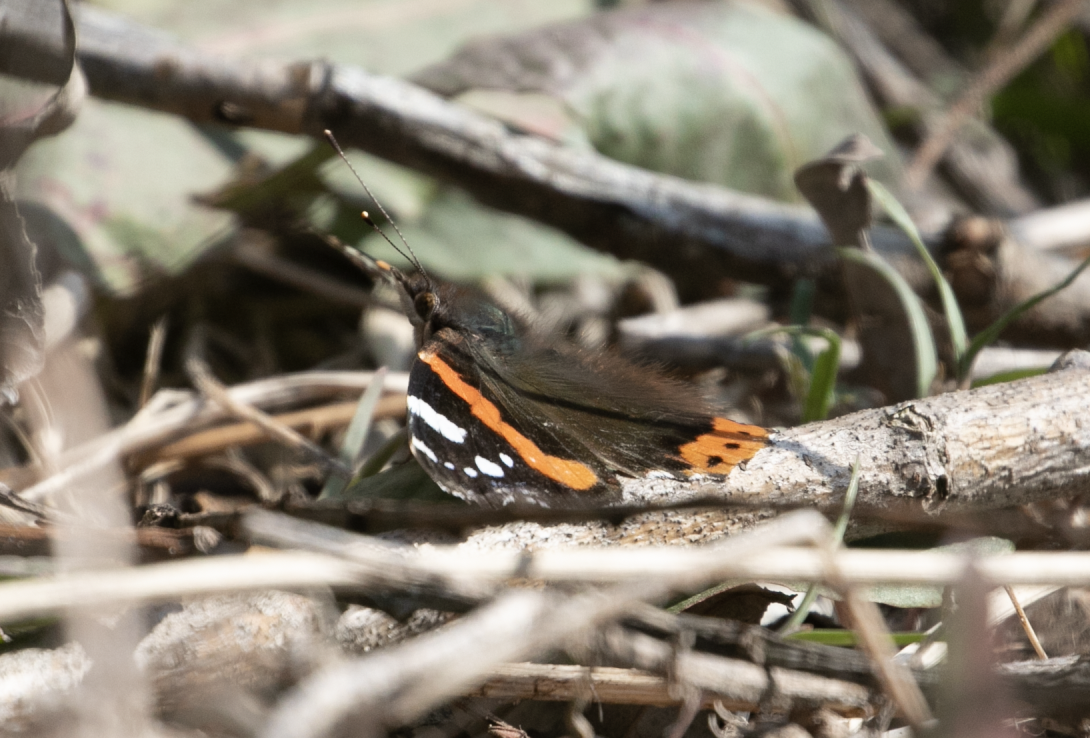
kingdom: Animalia
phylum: Arthropoda
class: Insecta
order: Lepidoptera
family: Nymphalidae
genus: Vanessa
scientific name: Vanessa atalanta
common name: Red admiral
